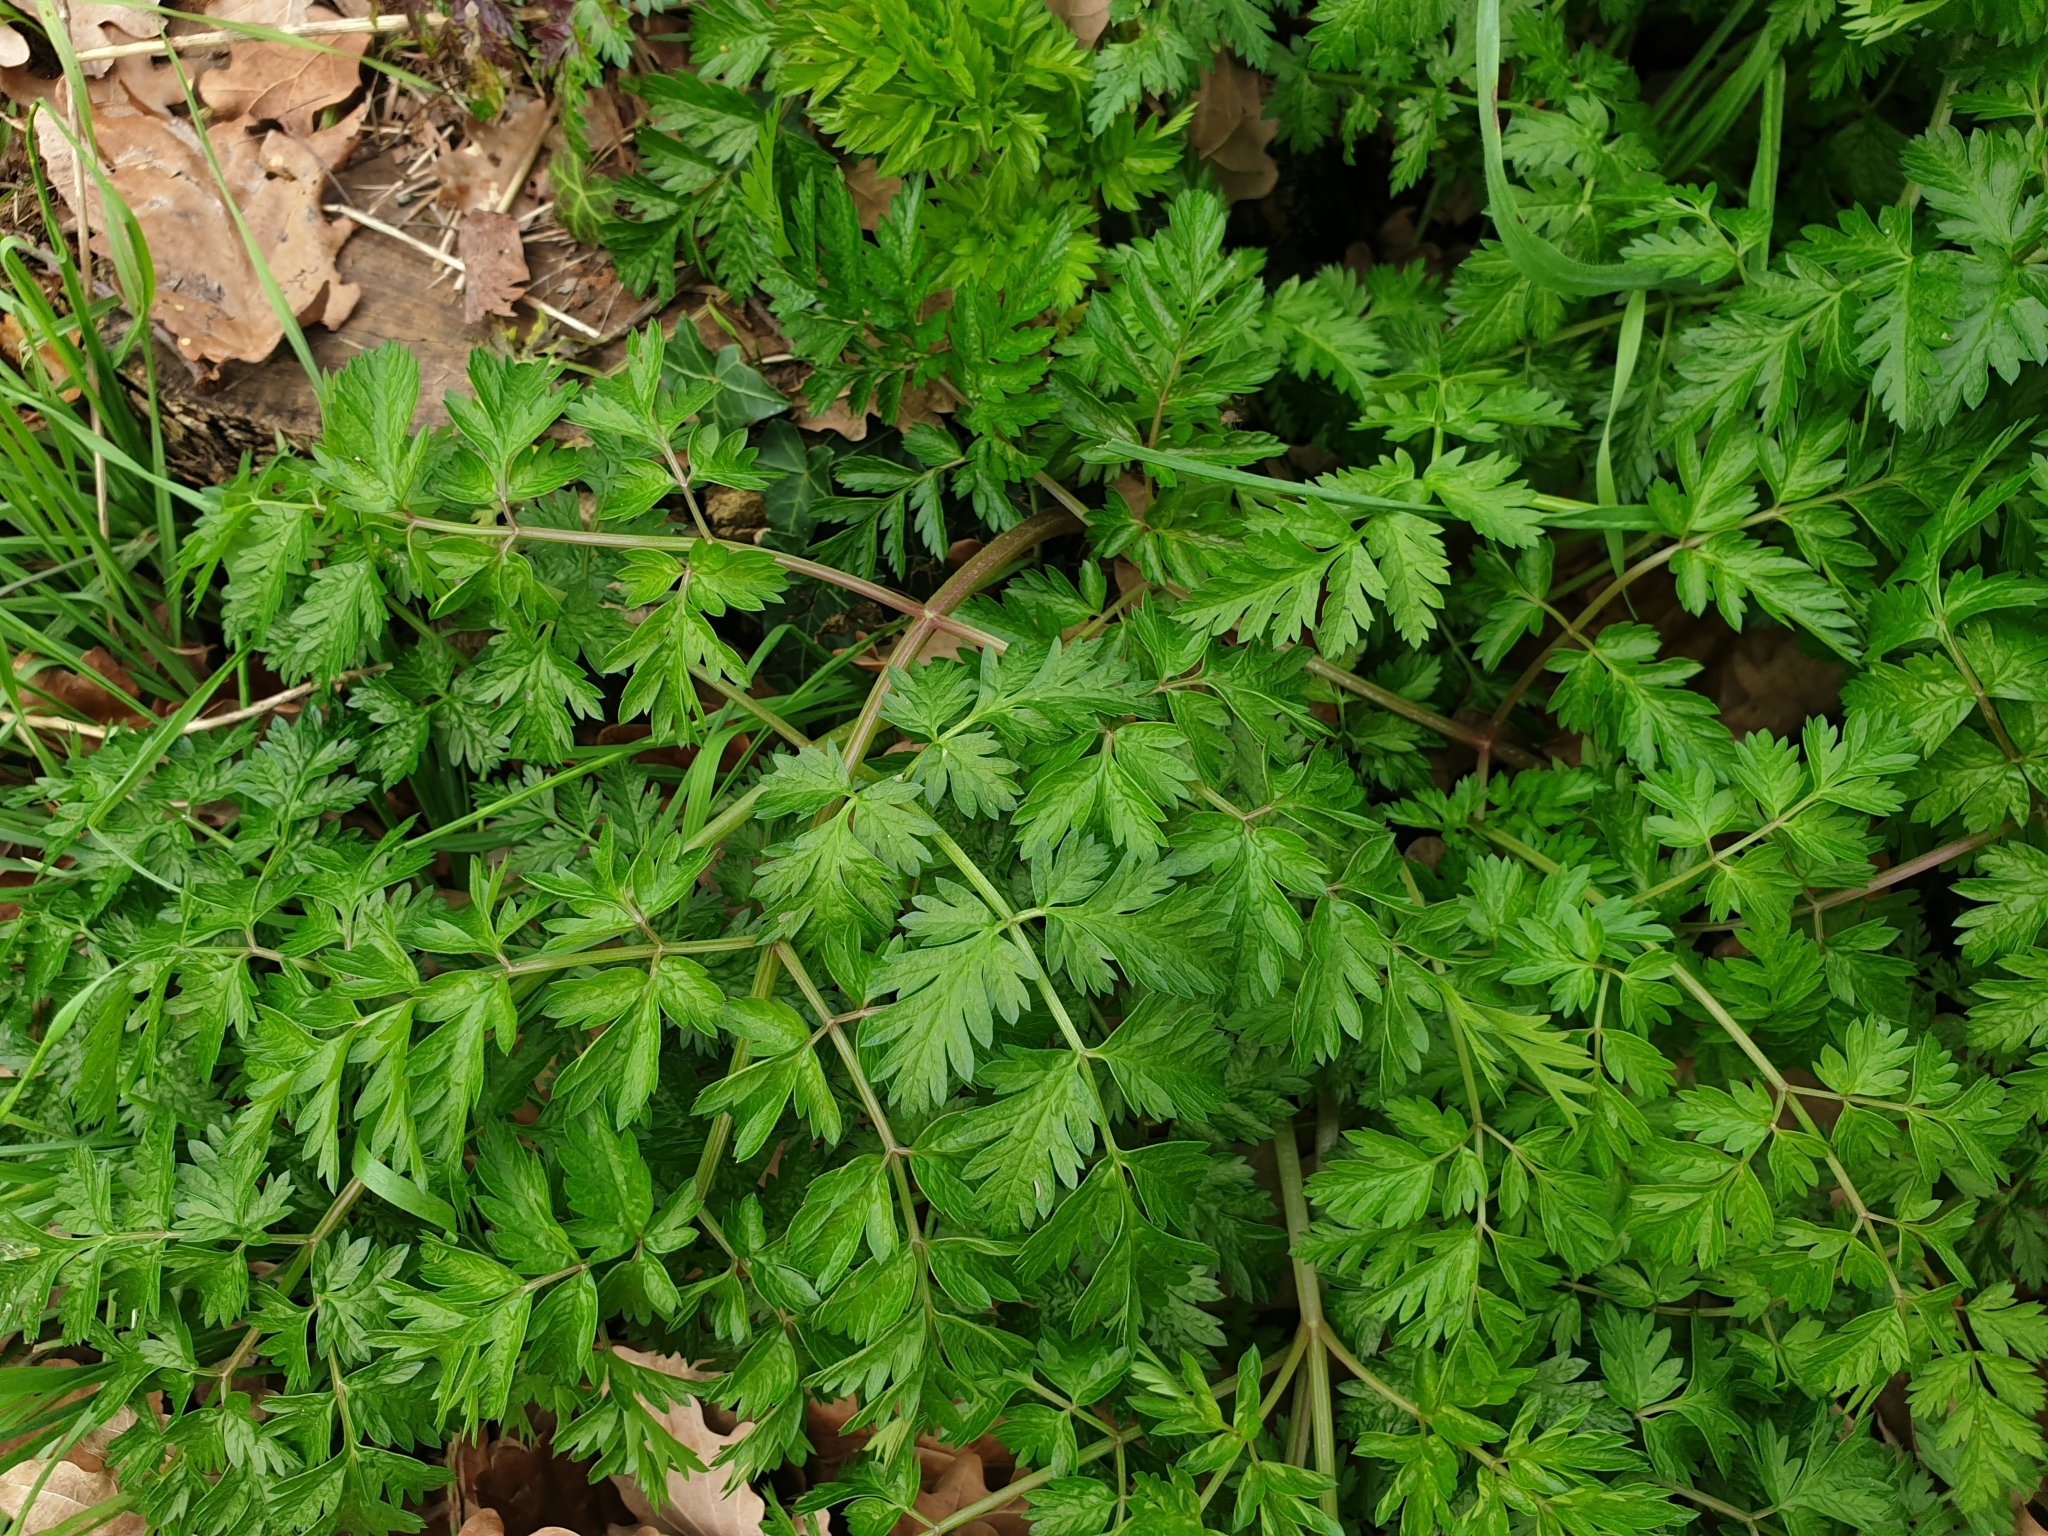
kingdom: Plantae
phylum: Tracheophyta
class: Magnoliopsida
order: Apiales
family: Apiaceae
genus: Anthriscus
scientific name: Anthriscus sylvestris
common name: Cow parsley
